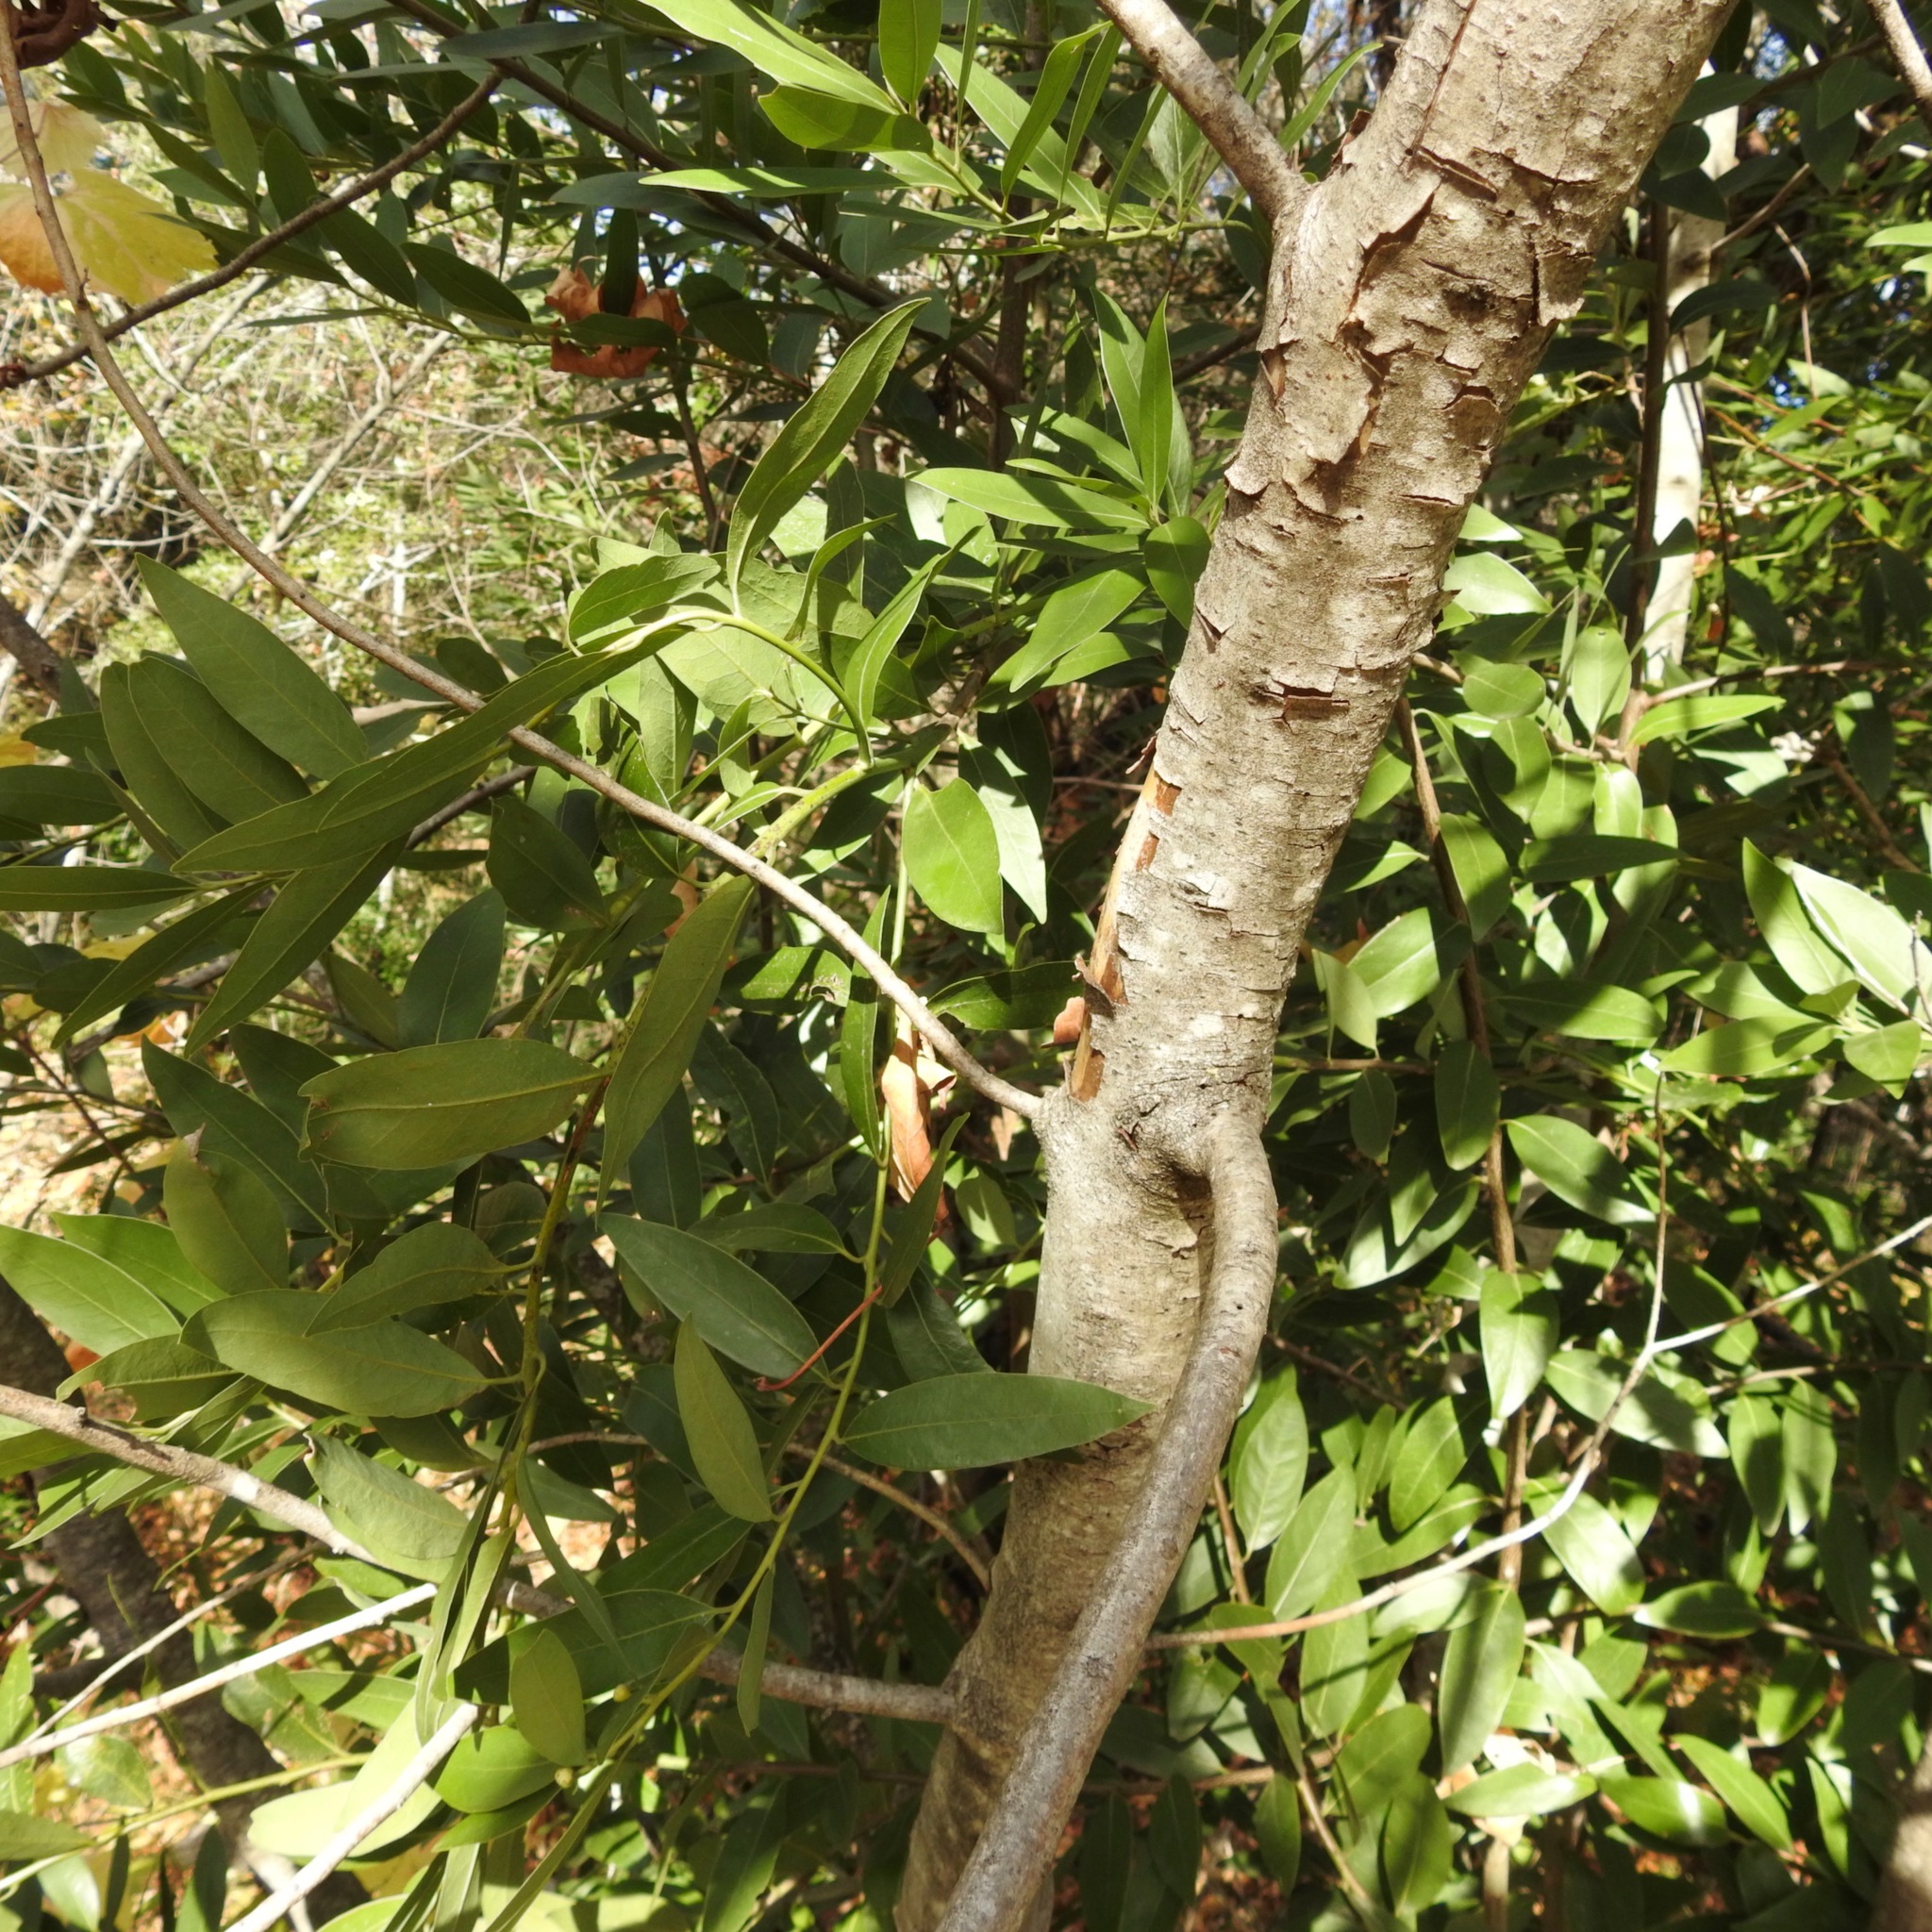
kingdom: Plantae
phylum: Tracheophyta
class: Magnoliopsida
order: Laurales
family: Lauraceae
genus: Umbellularia
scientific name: Umbellularia californica
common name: California bay
